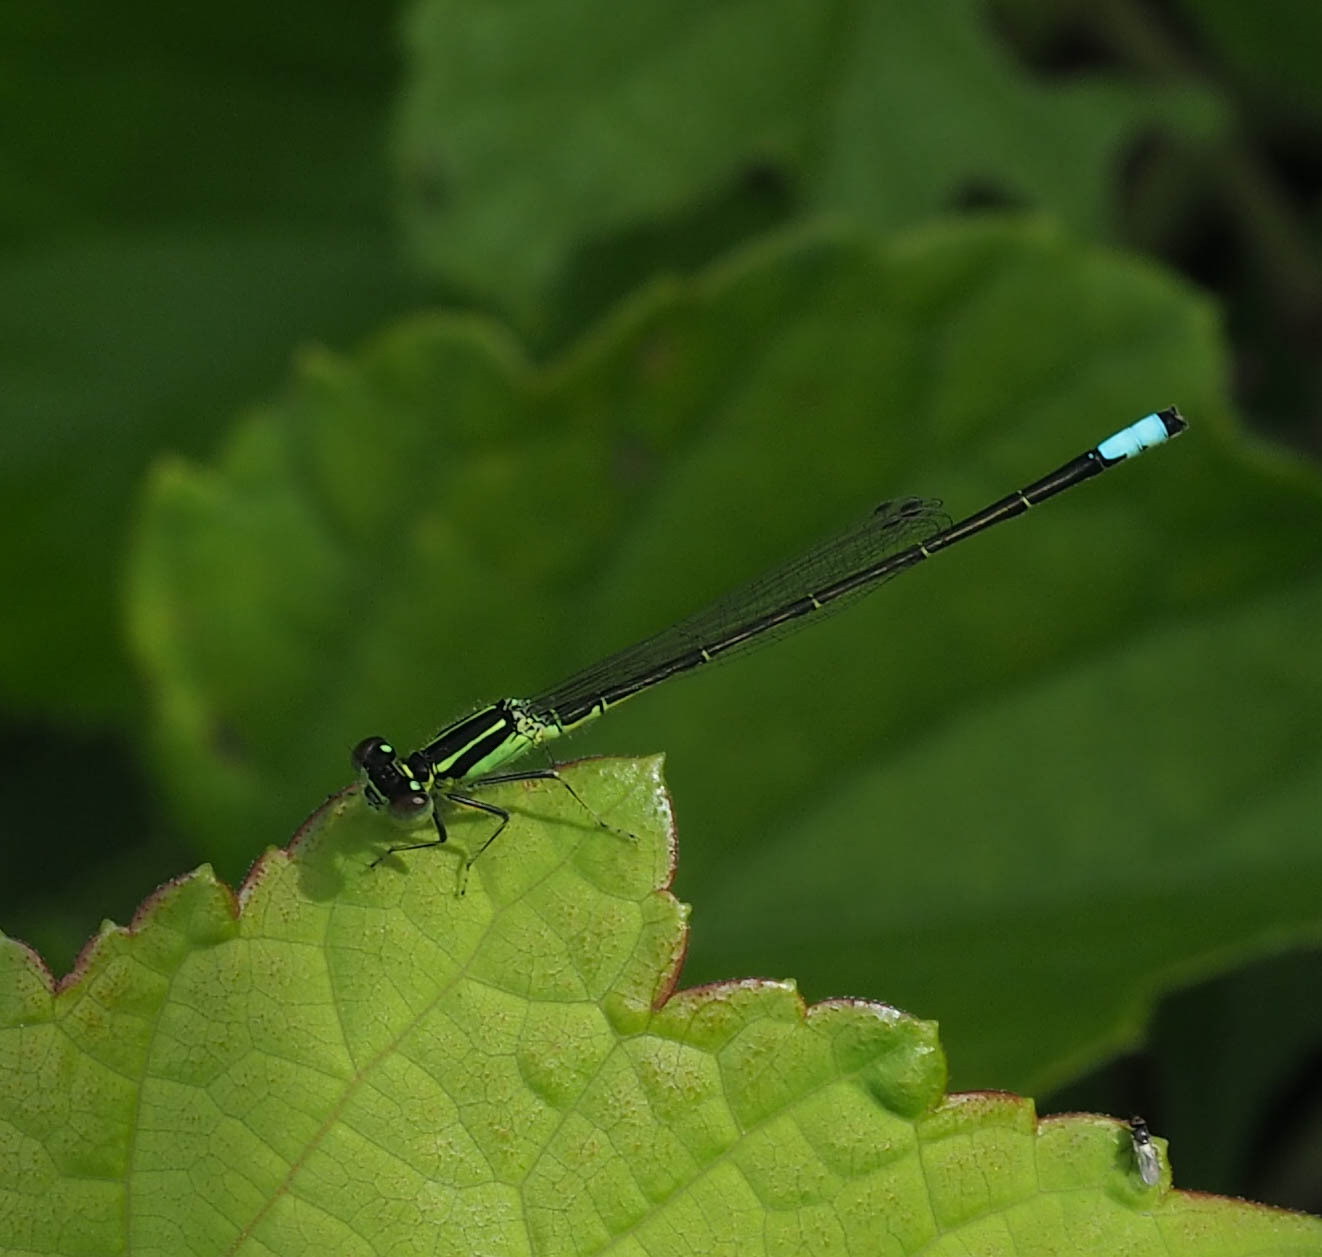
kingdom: Animalia
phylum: Arthropoda
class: Insecta
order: Odonata
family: Coenagrionidae
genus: Ischnura
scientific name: Ischnura verticalis
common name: Eastern forktail
